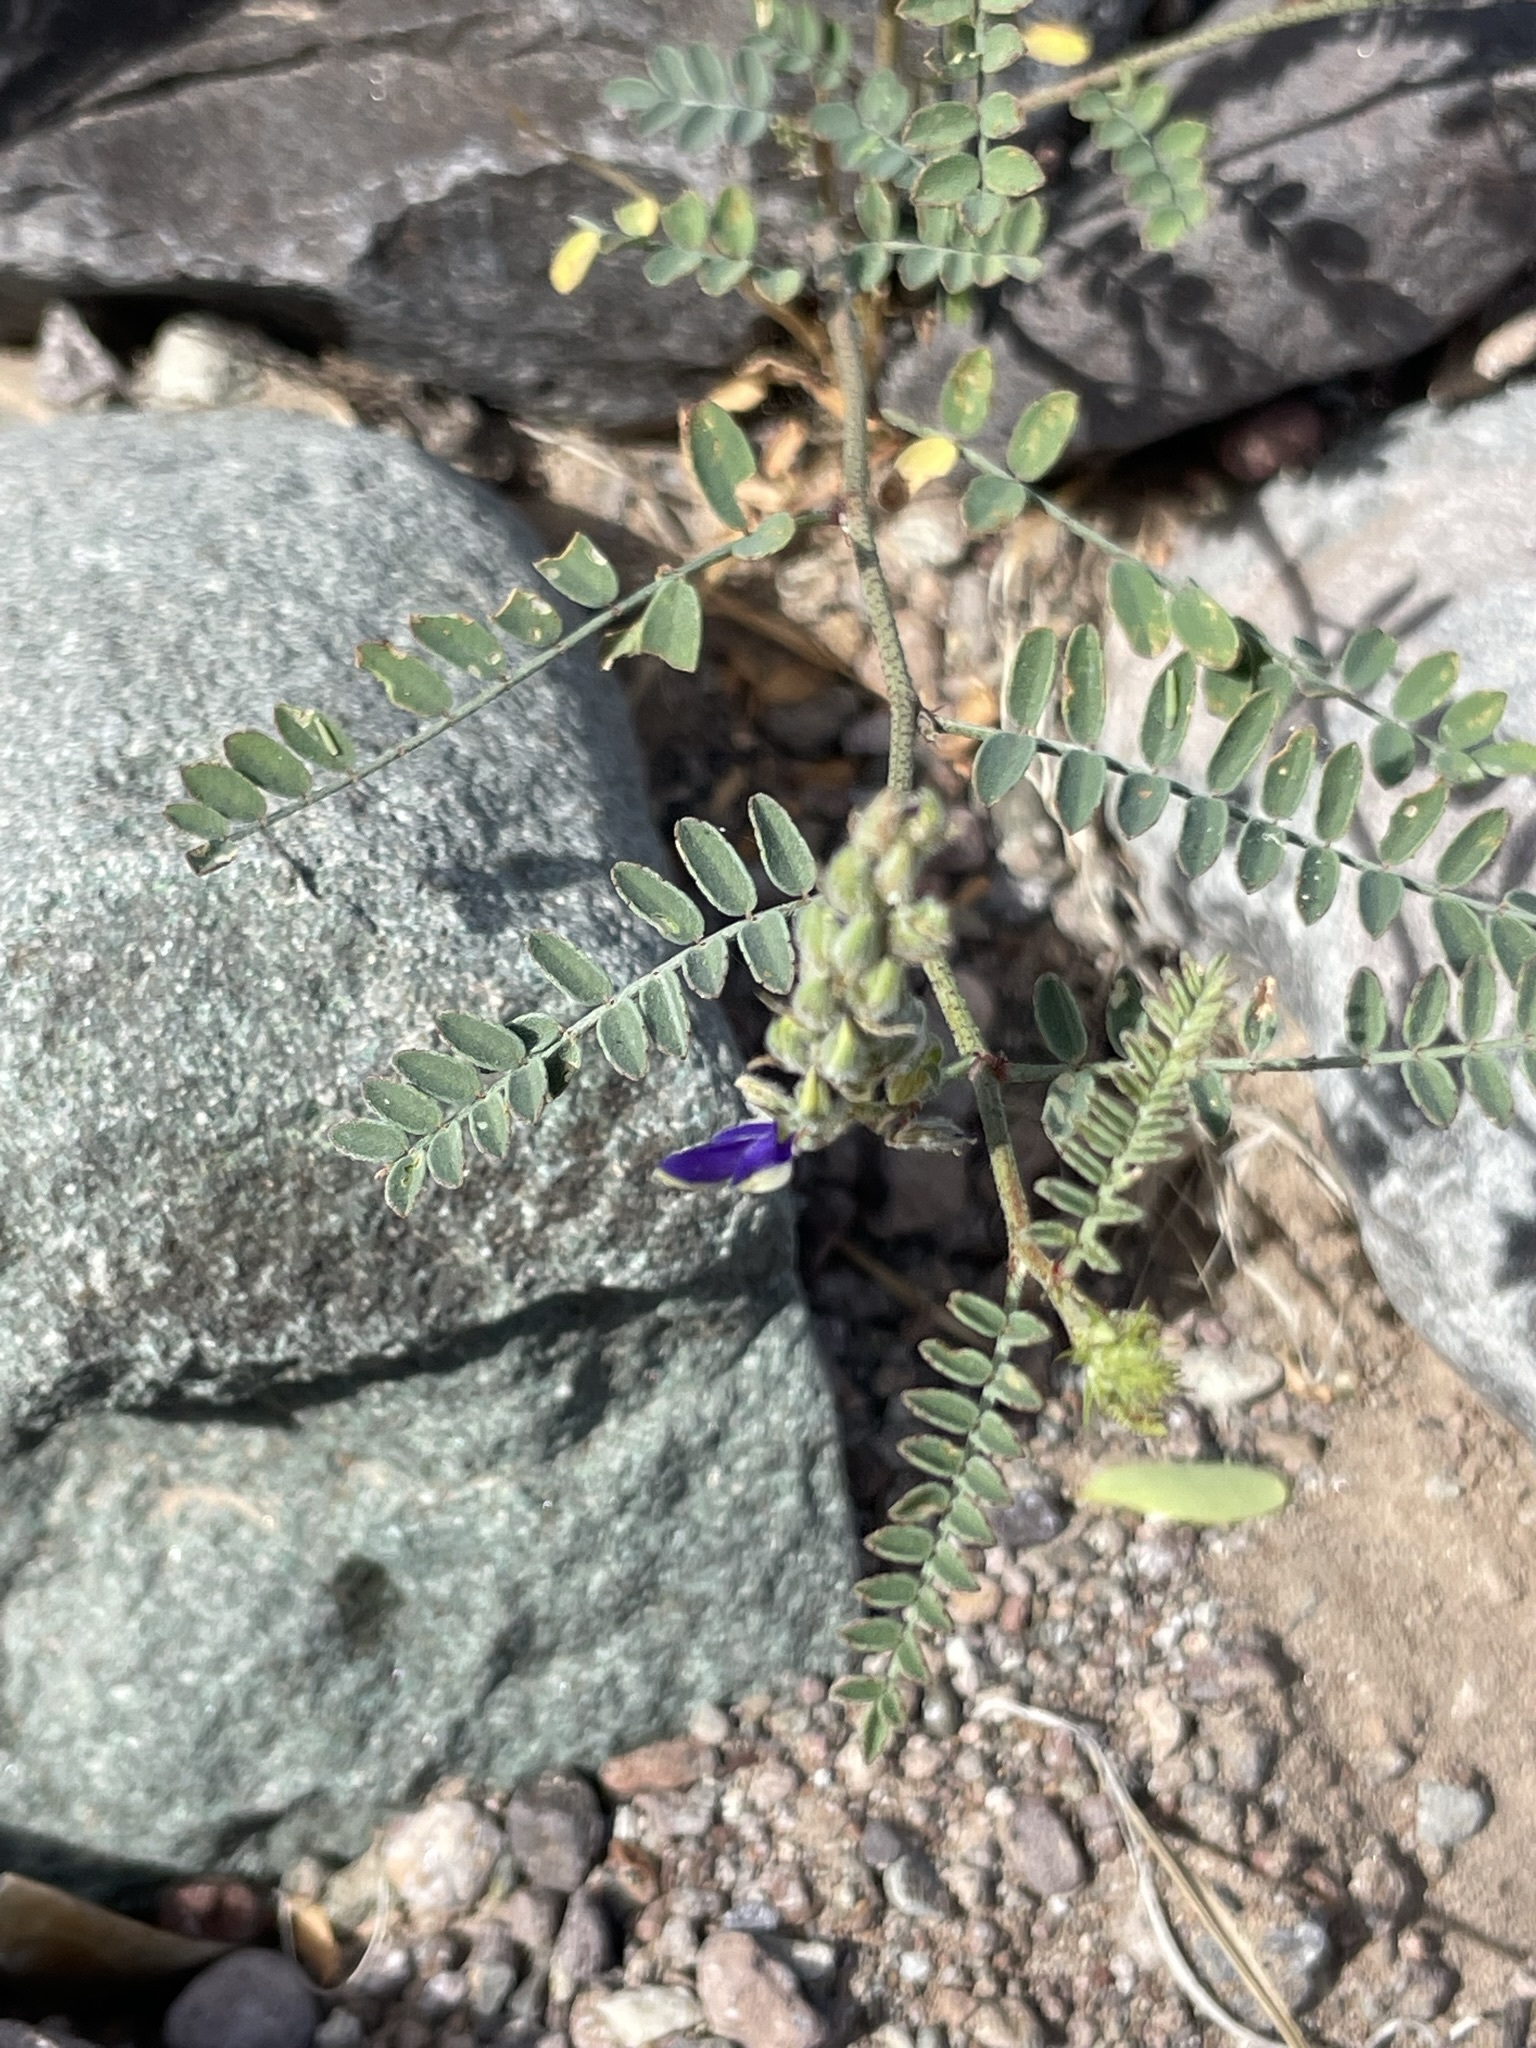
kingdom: Plantae
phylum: Tracheophyta
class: Magnoliopsida
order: Fabales
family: Fabaceae
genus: Marina
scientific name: Marina parryi
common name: Parry's marina
